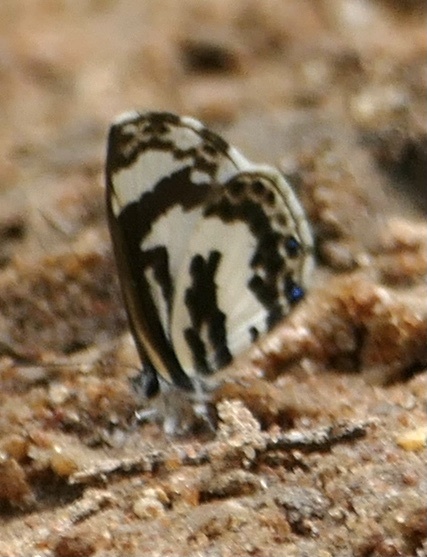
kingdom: Animalia
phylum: Arthropoda
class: Insecta
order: Lepidoptera
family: Lycaenidae
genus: Azanus
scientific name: Azanus isis
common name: White-banded babul blue
